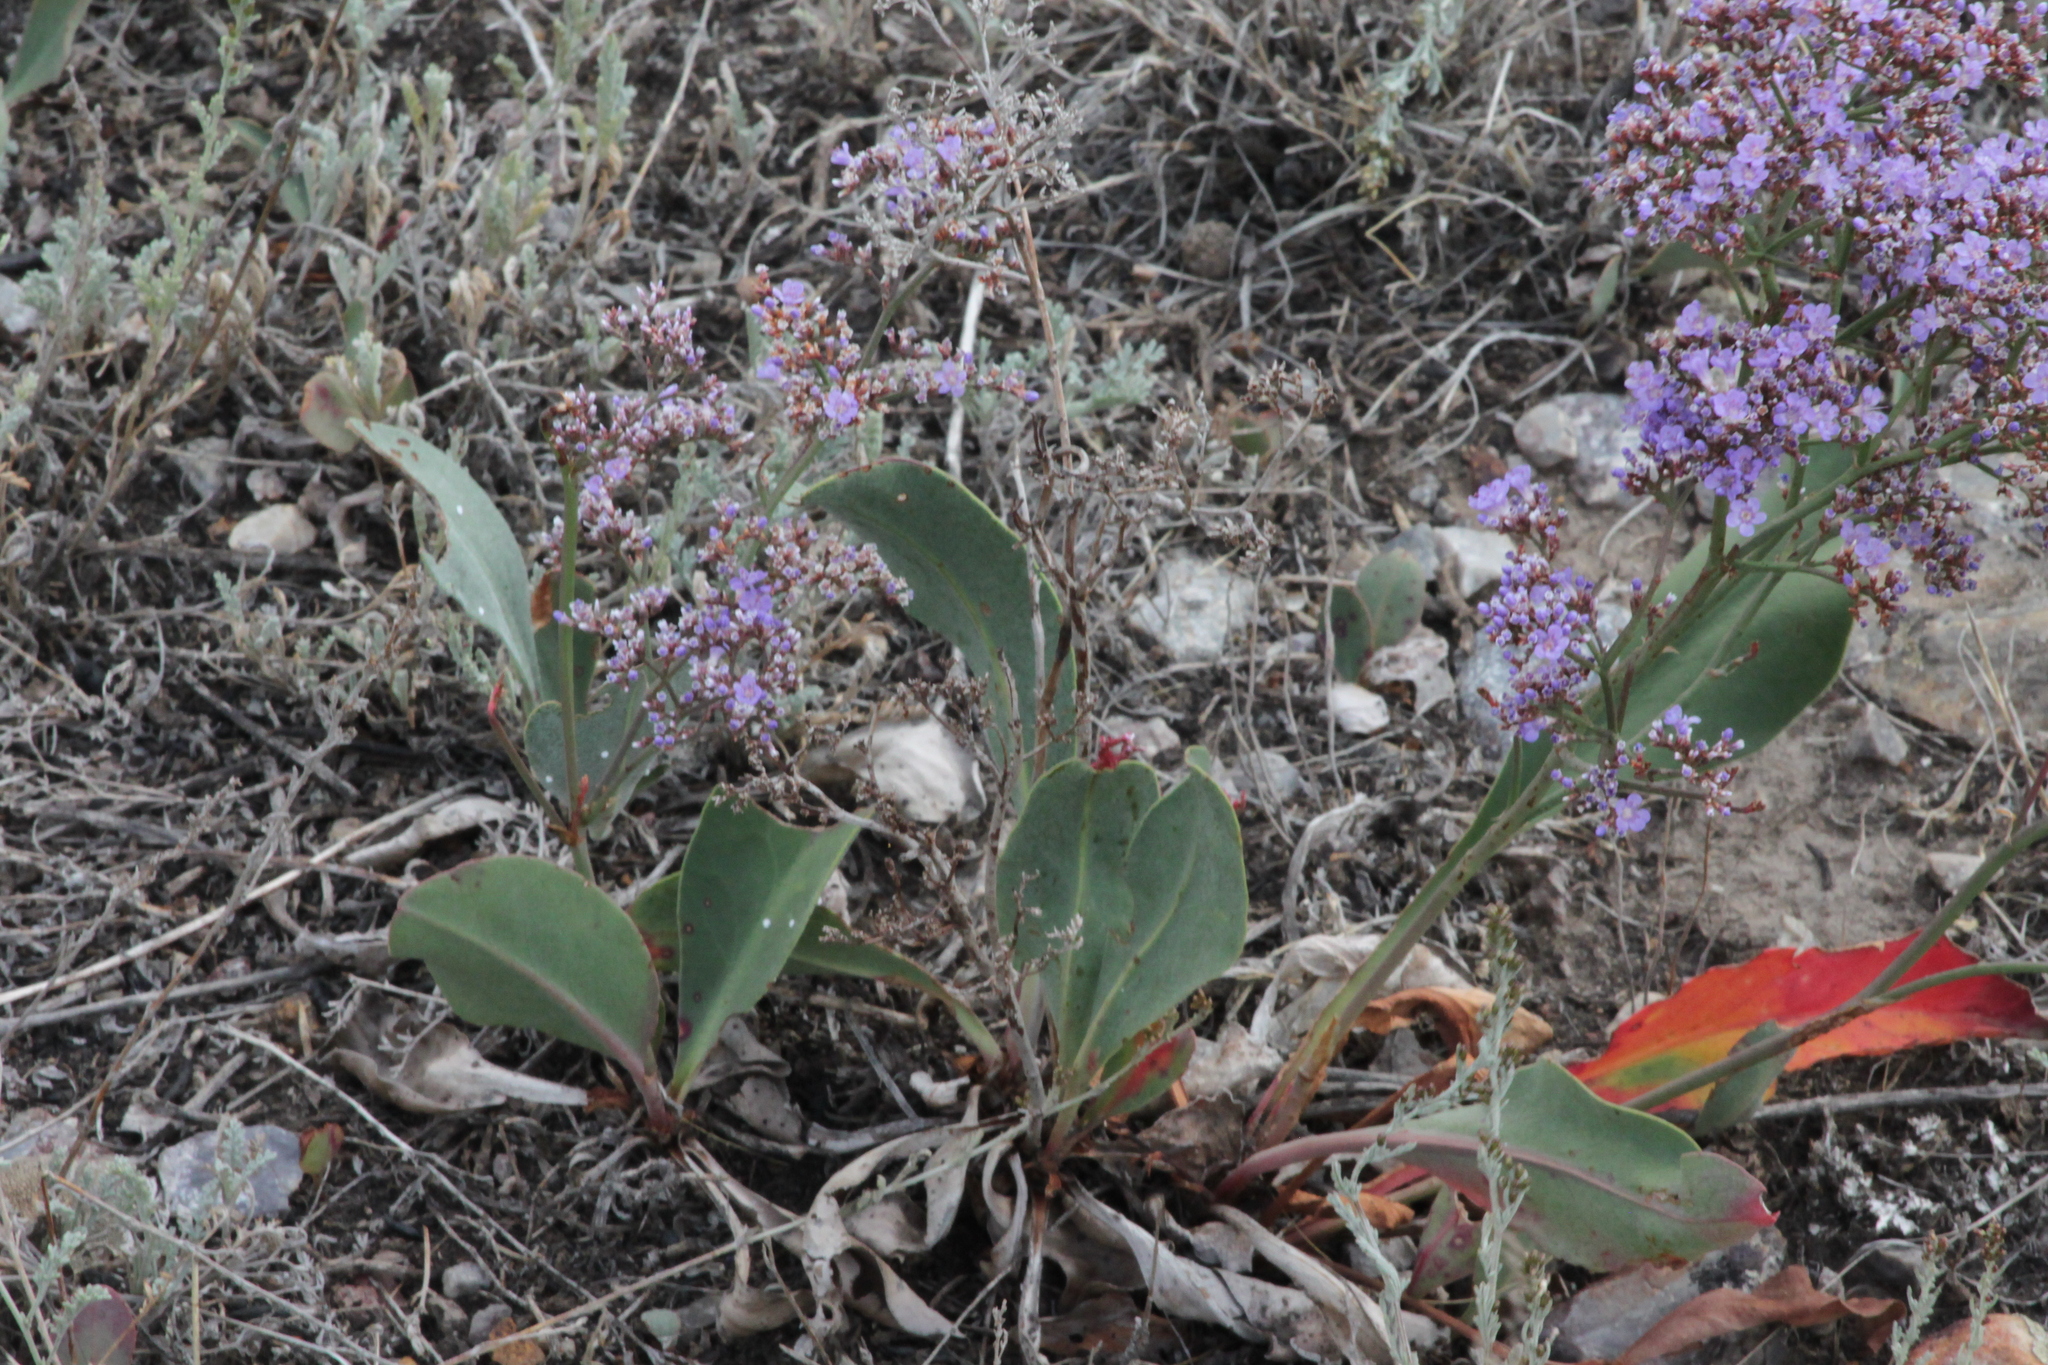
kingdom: Plantae
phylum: Tracheophyta
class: Magnoliopsida
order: Caryophyllales
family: Plumbaginaceae
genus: Limonium
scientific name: Limonium gmelini
